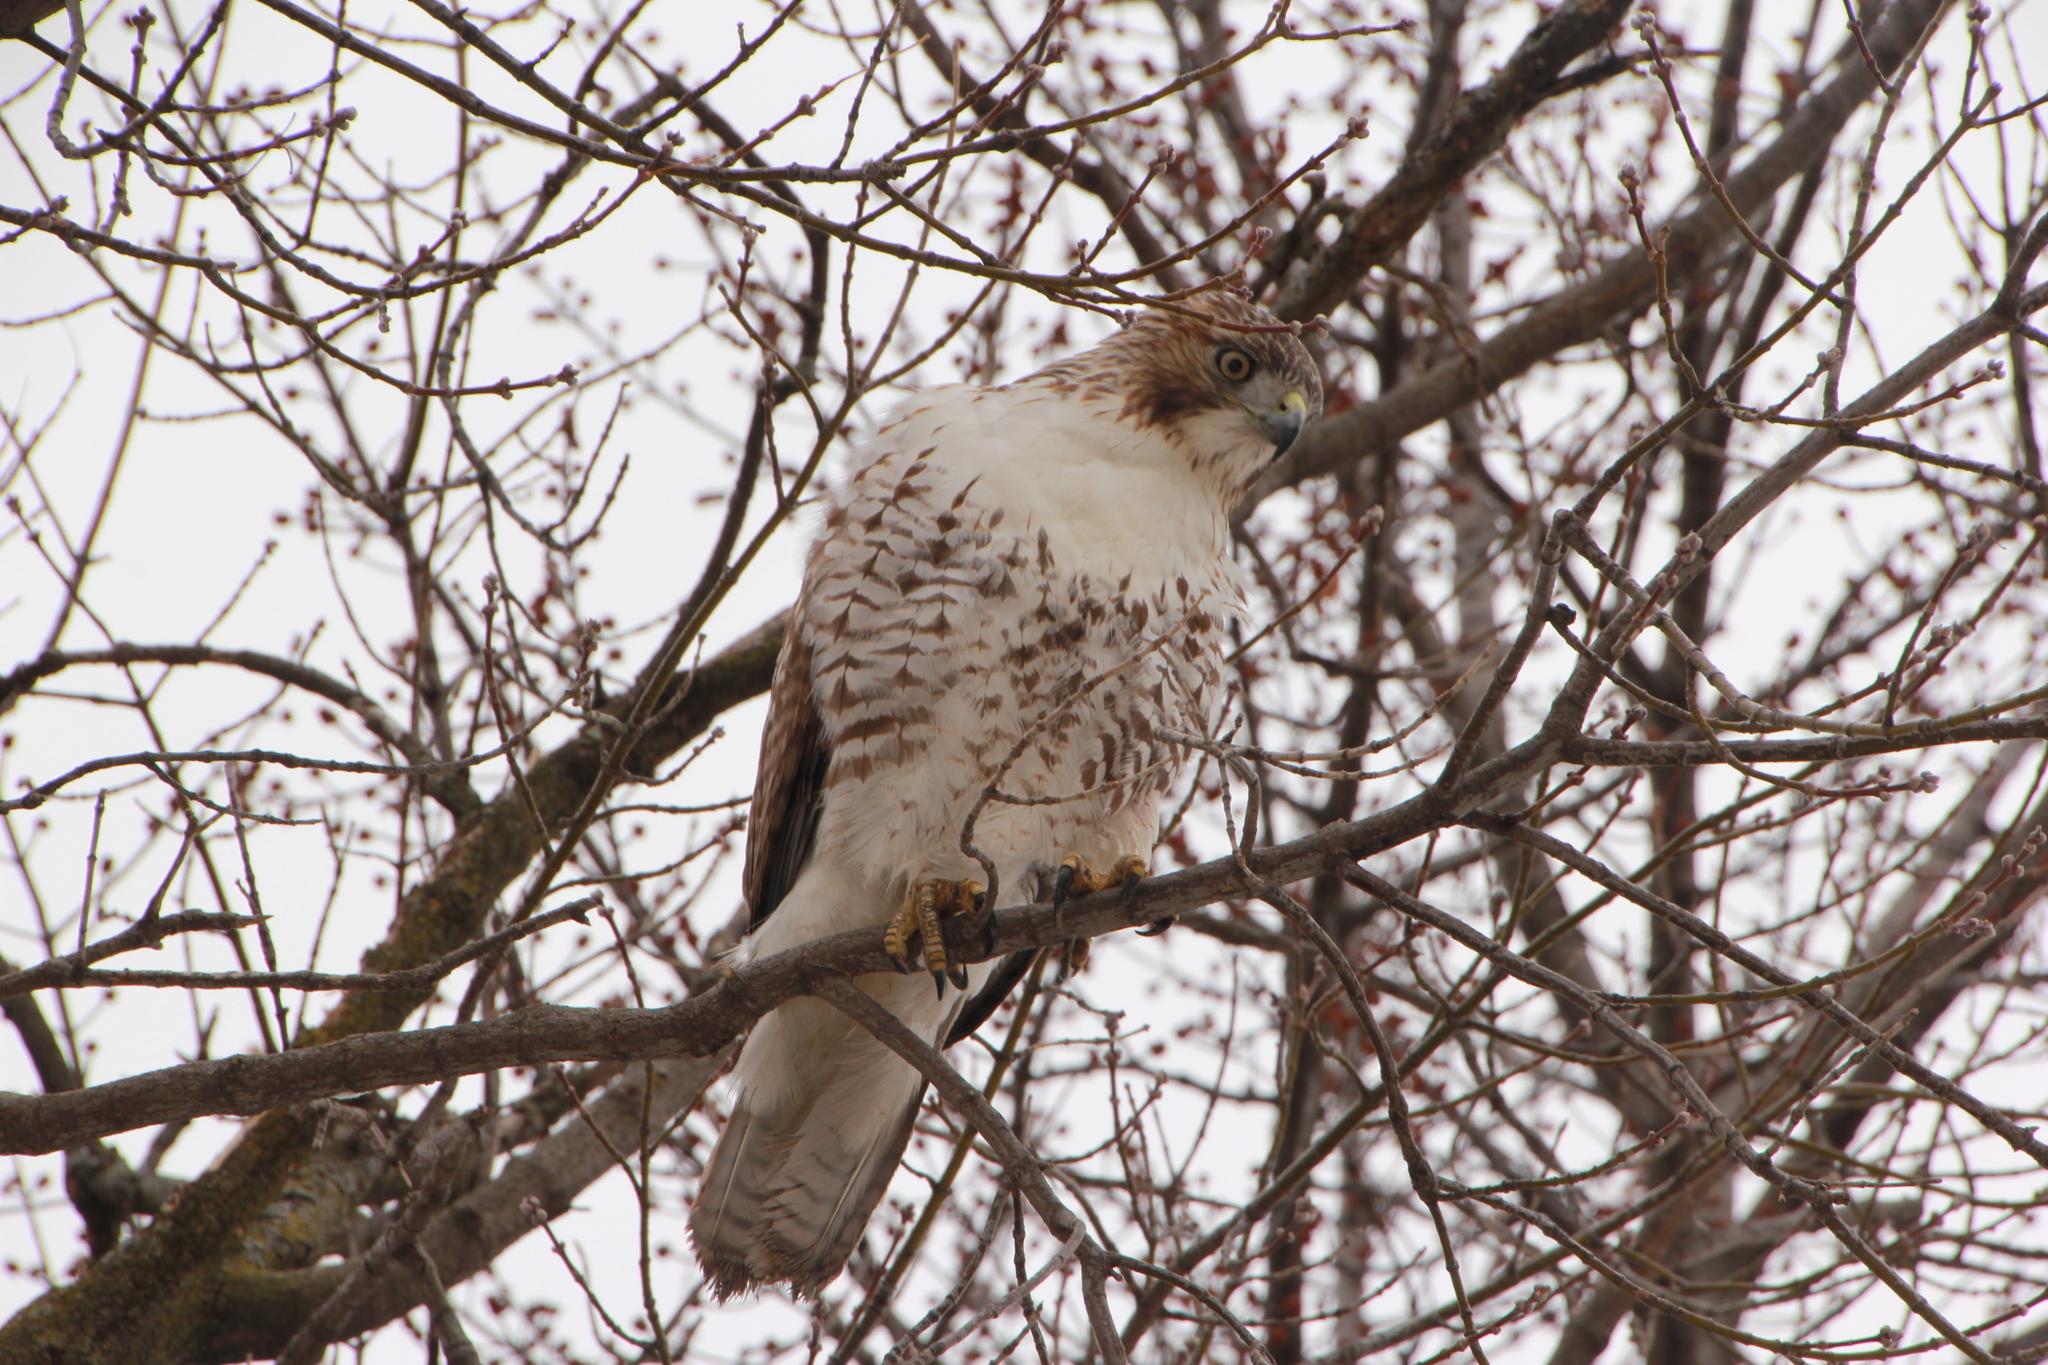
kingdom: Animalia
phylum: Chordata
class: Aves
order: Accipitriformes
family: Accipitridae
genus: Buteo
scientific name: Buteo jamaicensis
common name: Red-tailed hawk
